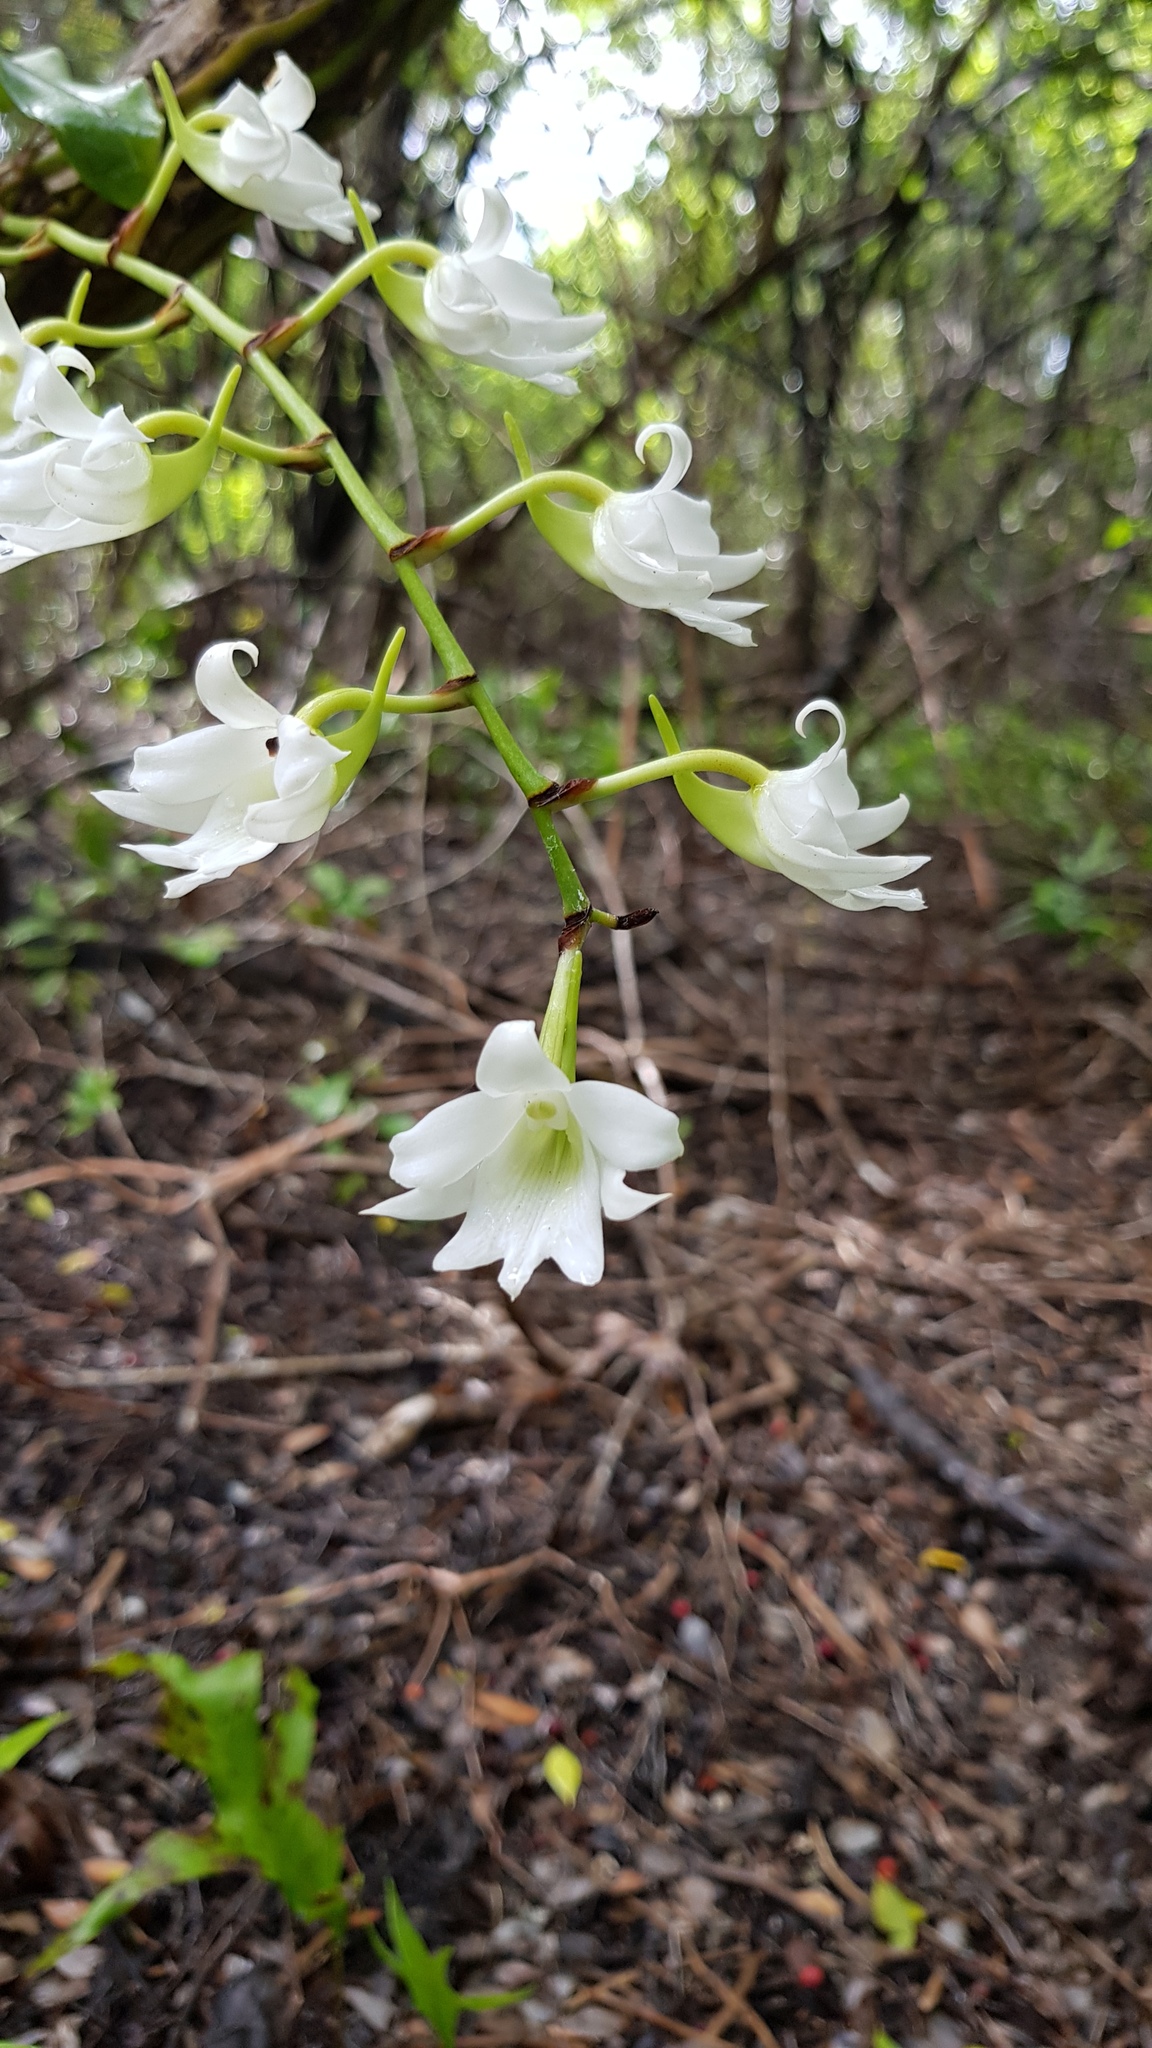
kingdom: Plantae
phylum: Tracheophyta
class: Liliopsida
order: Asparagales
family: Orchidaceae
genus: Sobennikoffia
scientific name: Sobennikoffia poissoniana
